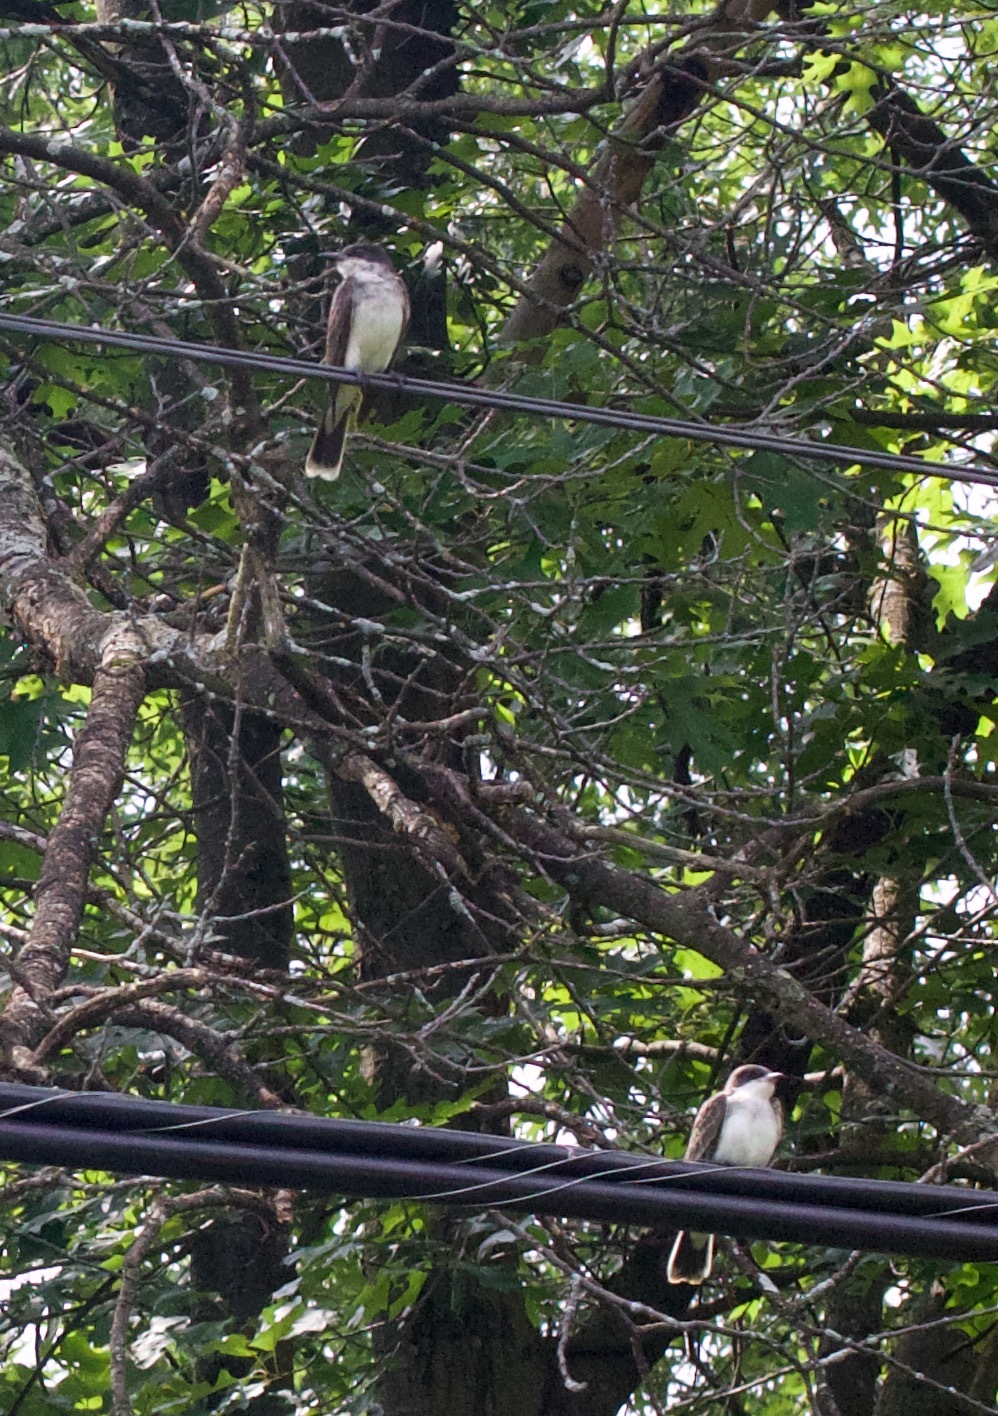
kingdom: Animalia
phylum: Chordata
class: Aves
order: Passeriformes
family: Tyrannidae
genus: Tyrannus
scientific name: Tyrannus tyrannus
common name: Eastern kingbird
